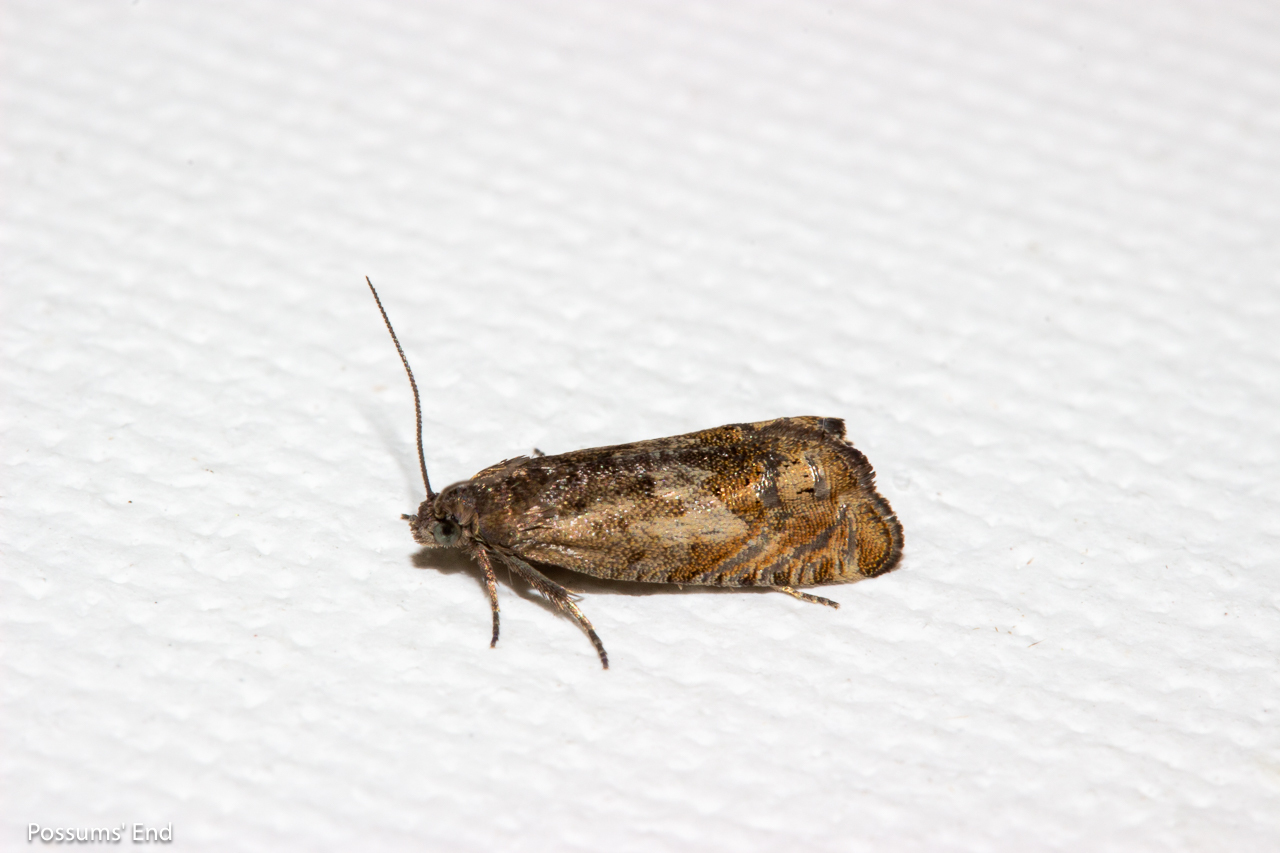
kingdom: Animalia
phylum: Arthropoda
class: Insecta
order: Lepidoptera
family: Tortricidae
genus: Cydia
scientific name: Cydia succedana
